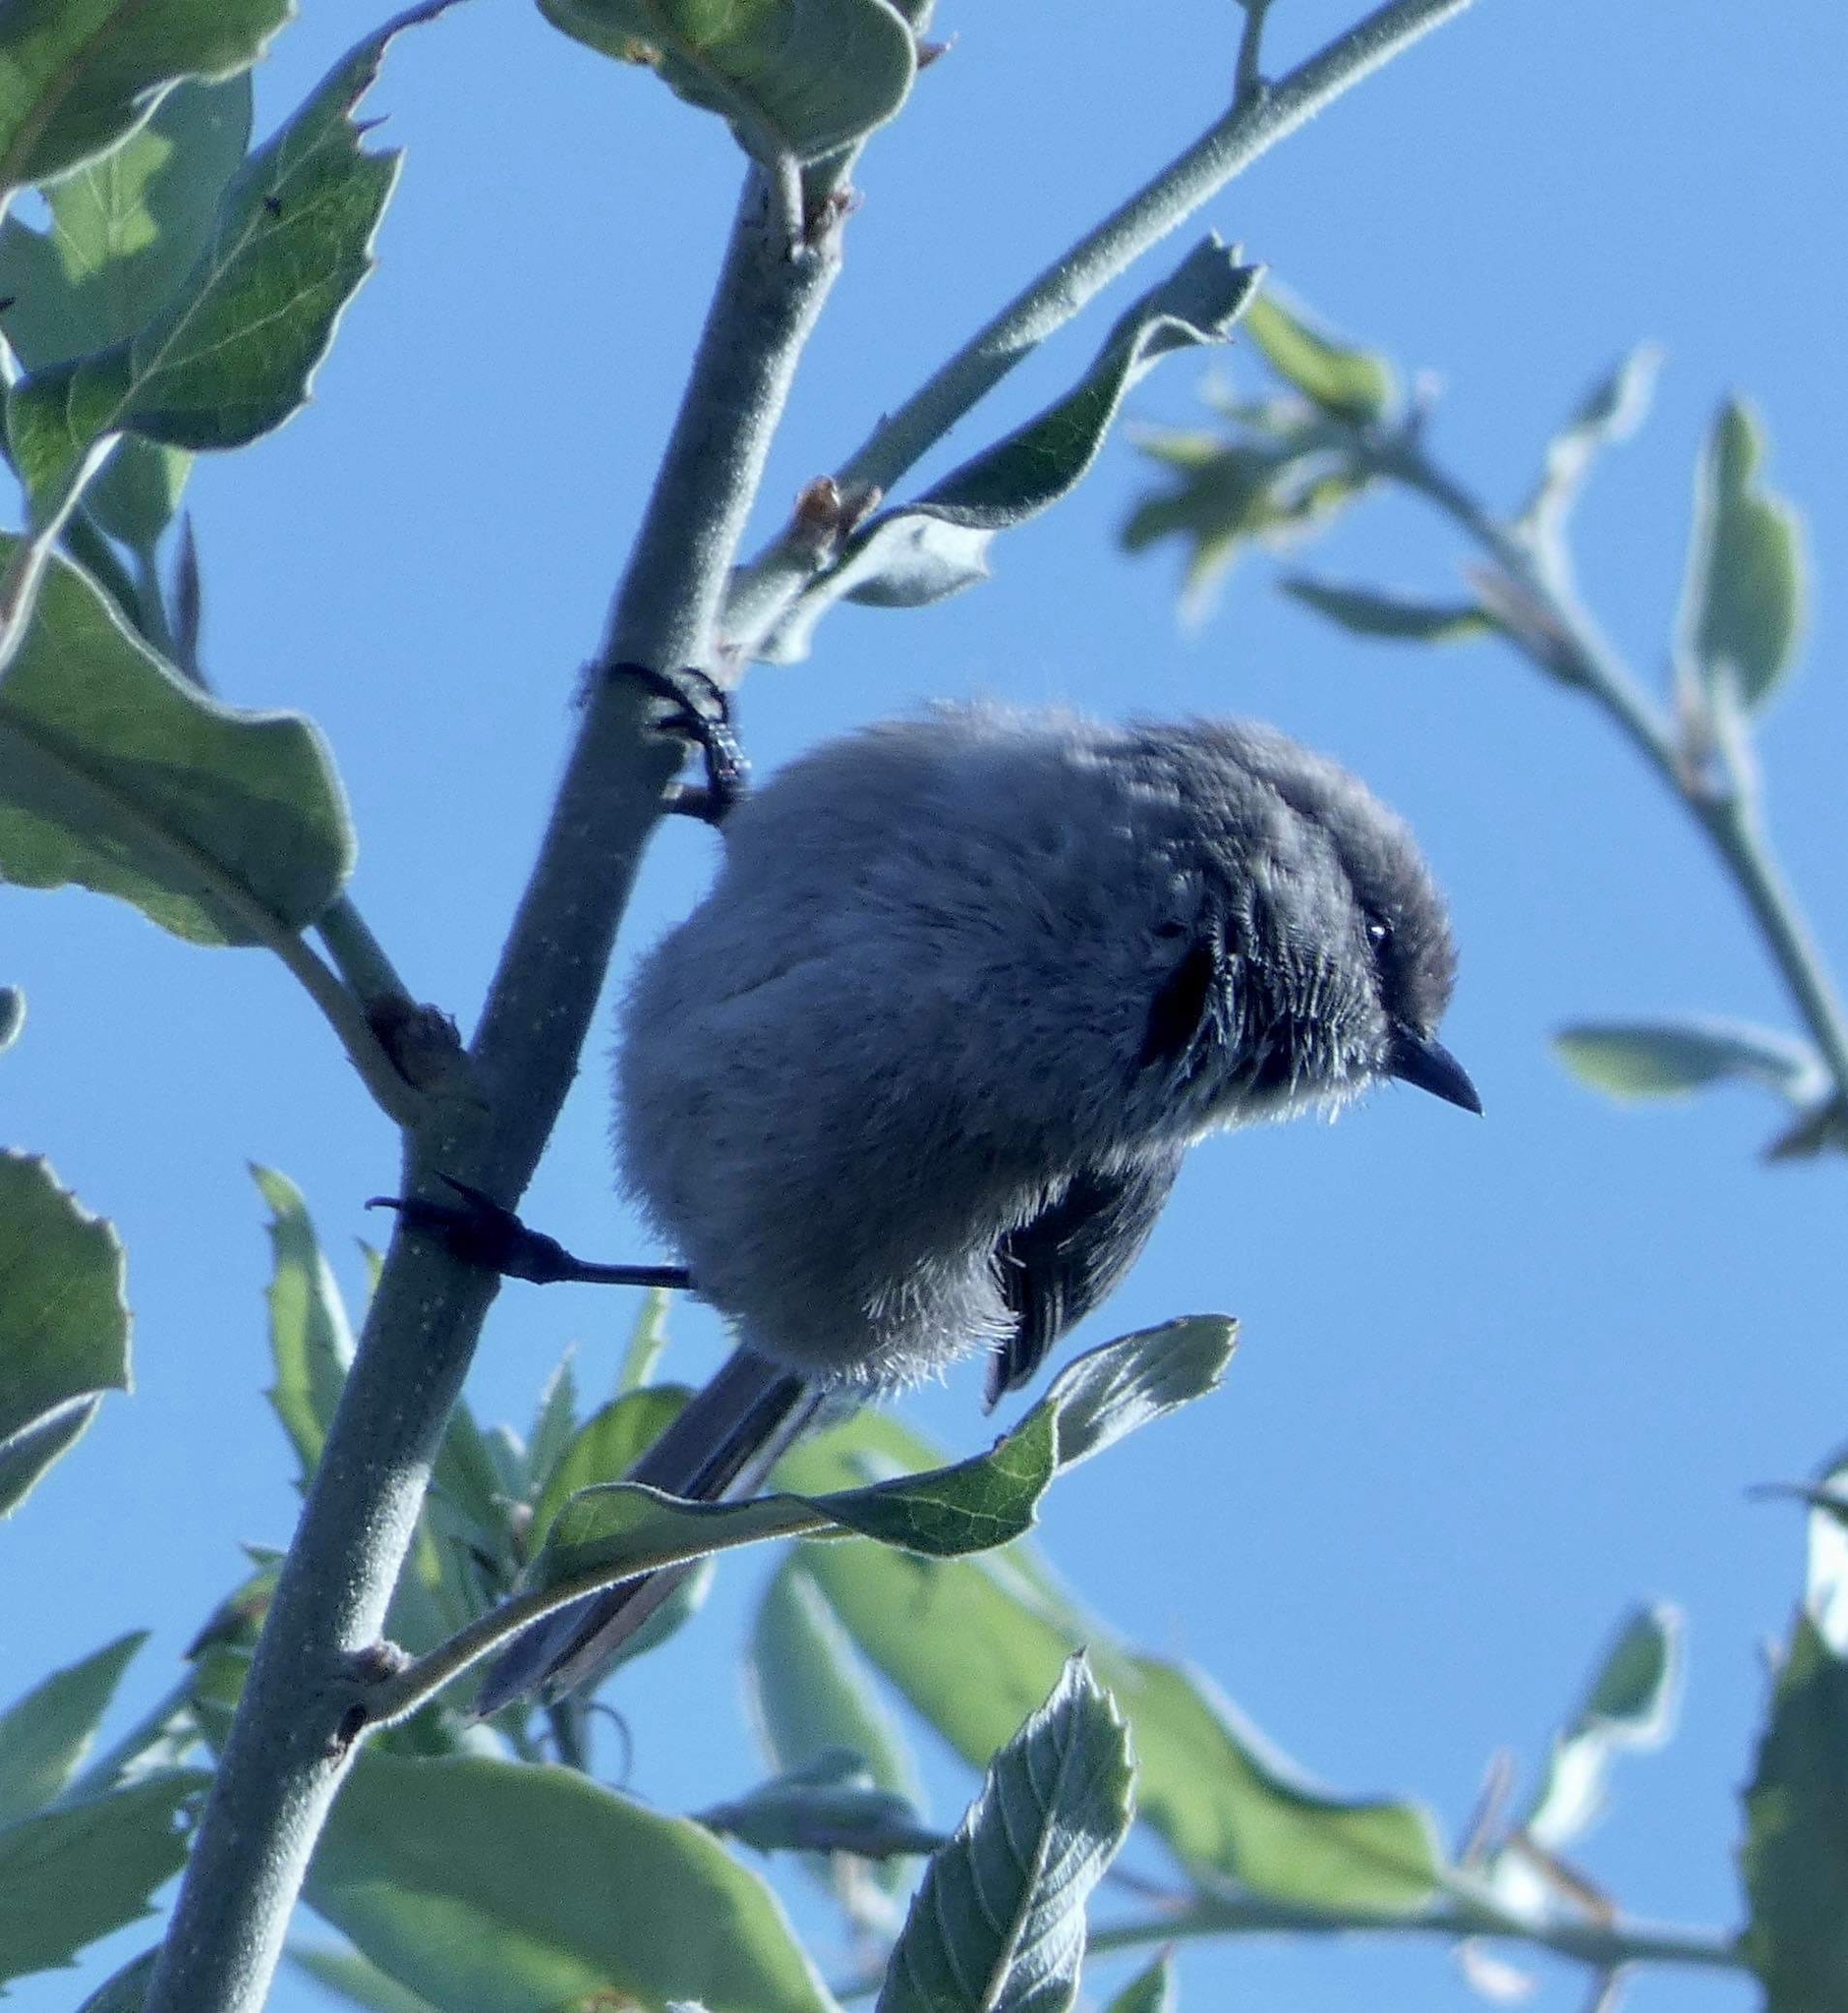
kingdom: Animalia
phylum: Chordata
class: Aves
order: Passeriformes
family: Aegithalidae
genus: Psaltriparus
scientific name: Psaltriparus minimus
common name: American bushtit
